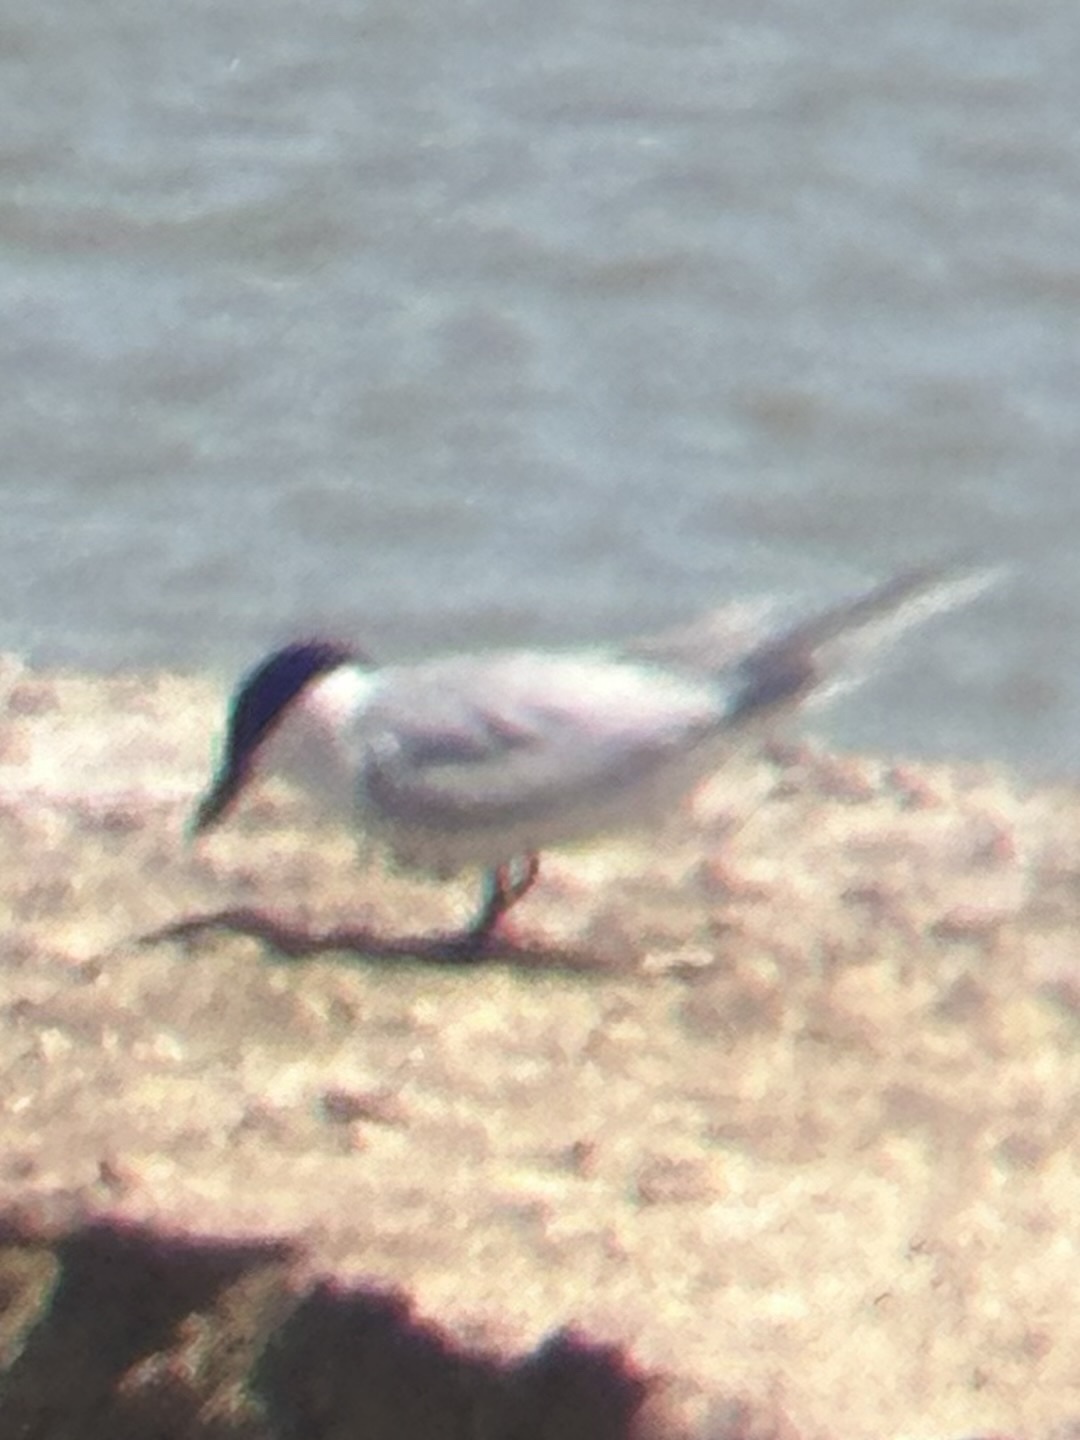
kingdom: Animalia
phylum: Chordata
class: Aves
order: Charadriiformes
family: Laridae
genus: Gelochelidon
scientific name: Gelochelidon nilotica
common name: Gull-billed tern
